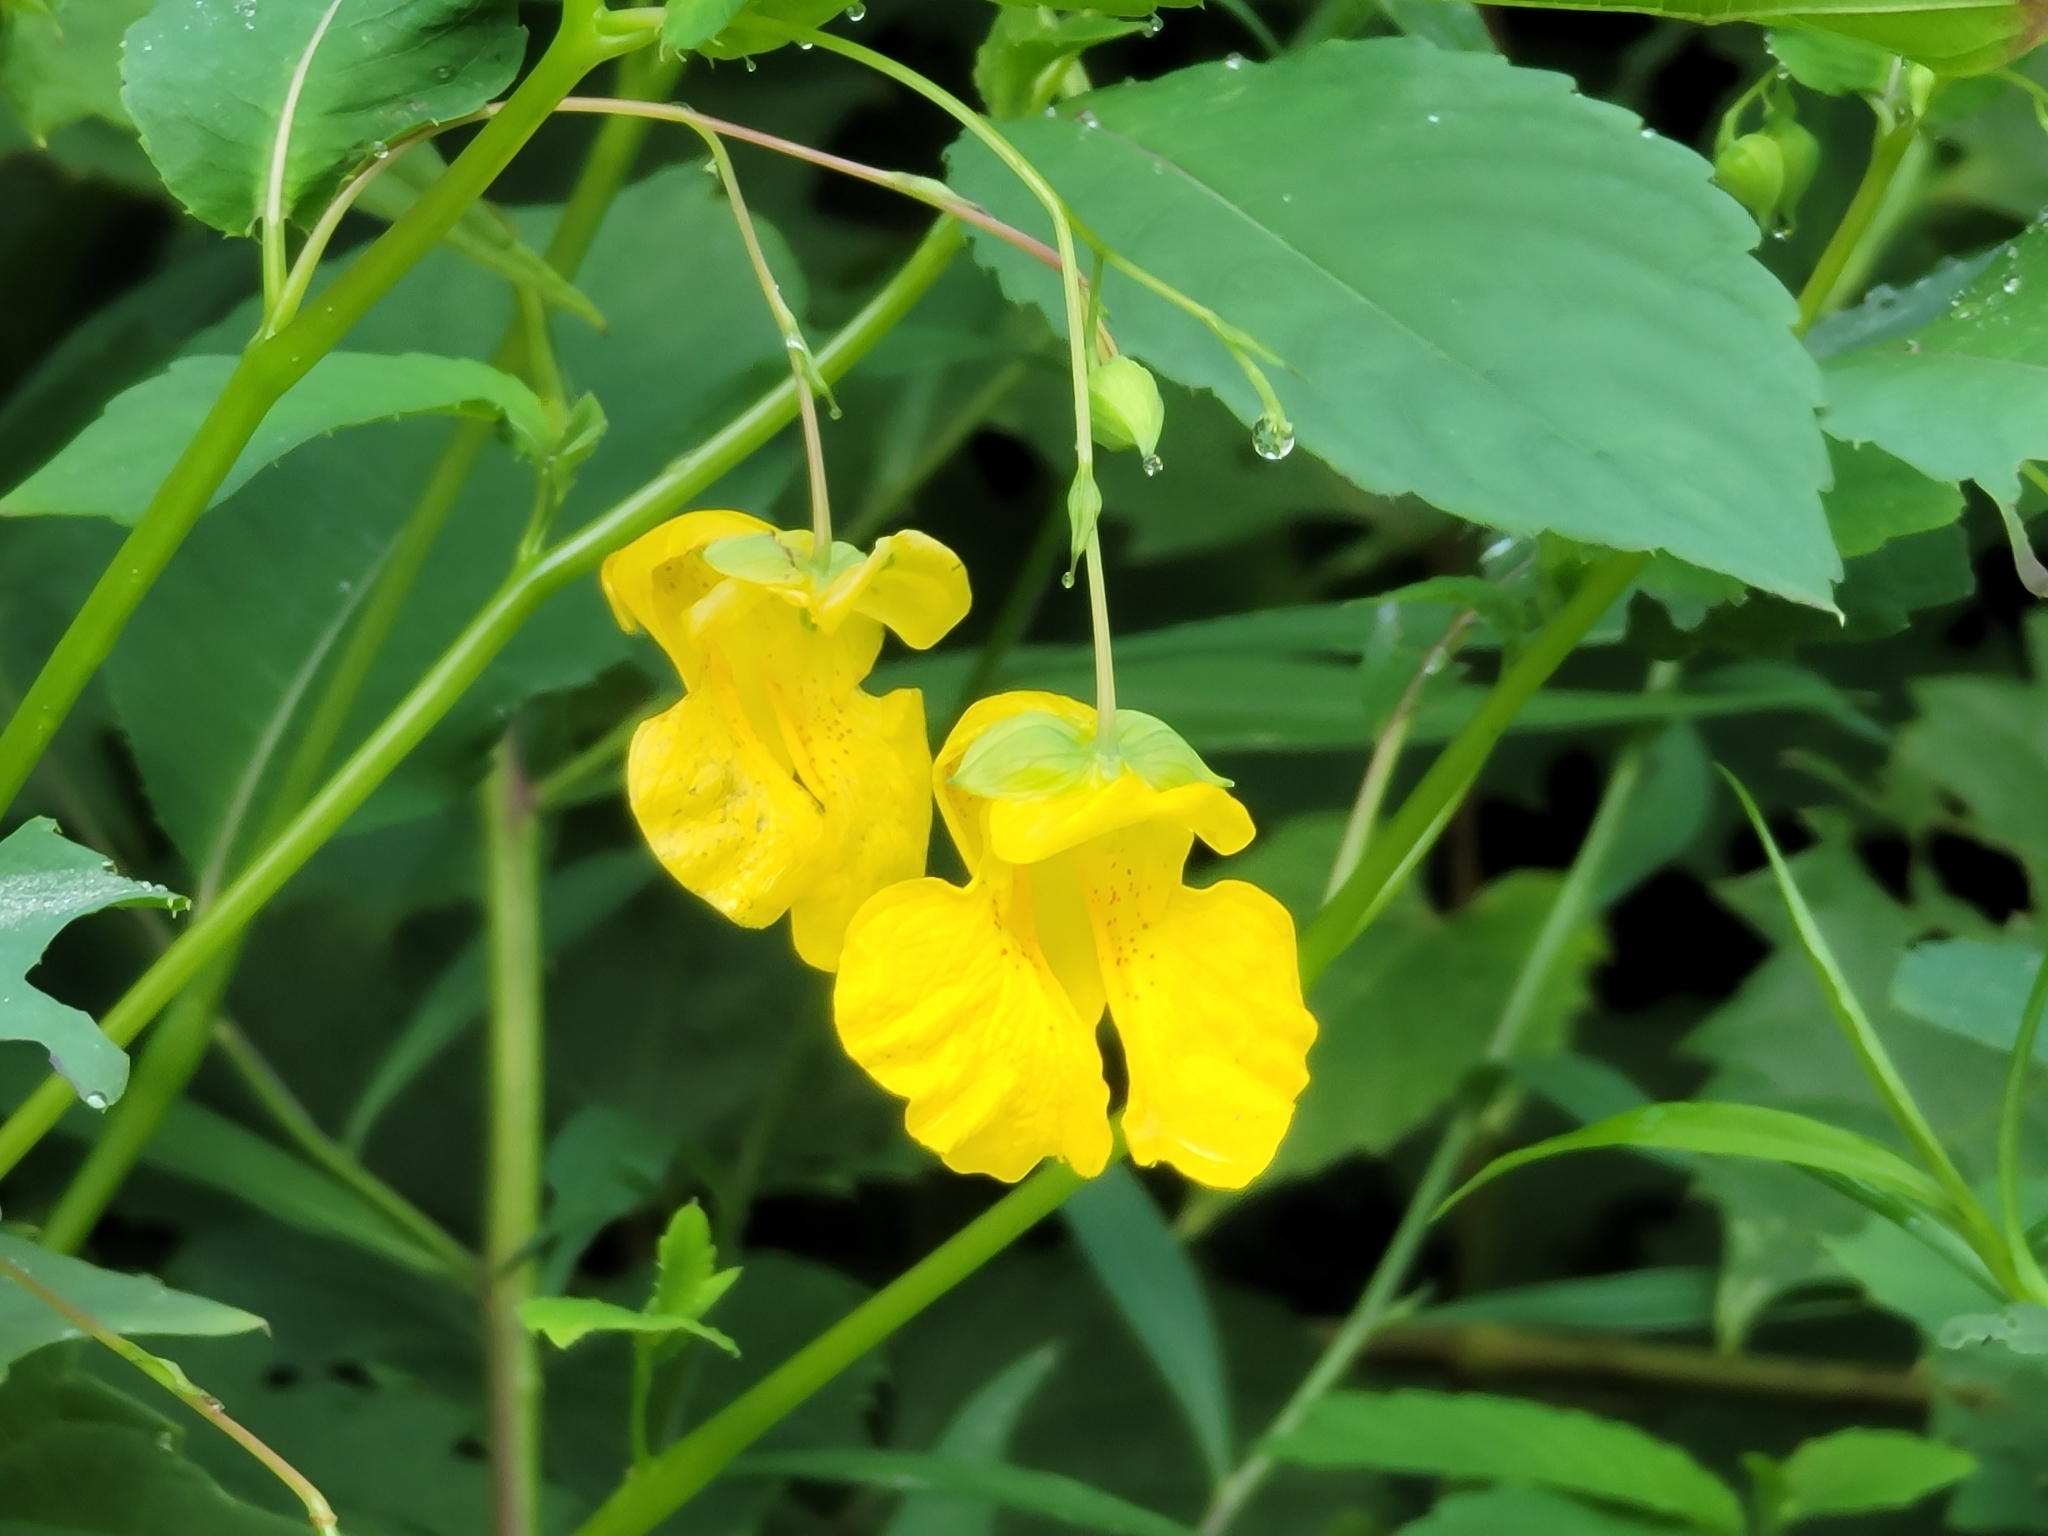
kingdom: Plantae
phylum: Tracheophyta
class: Magnoliopsida
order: Ericales
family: Balsaminaceae
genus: Impatiens
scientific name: Impatiens pallida
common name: Pale snapweed
